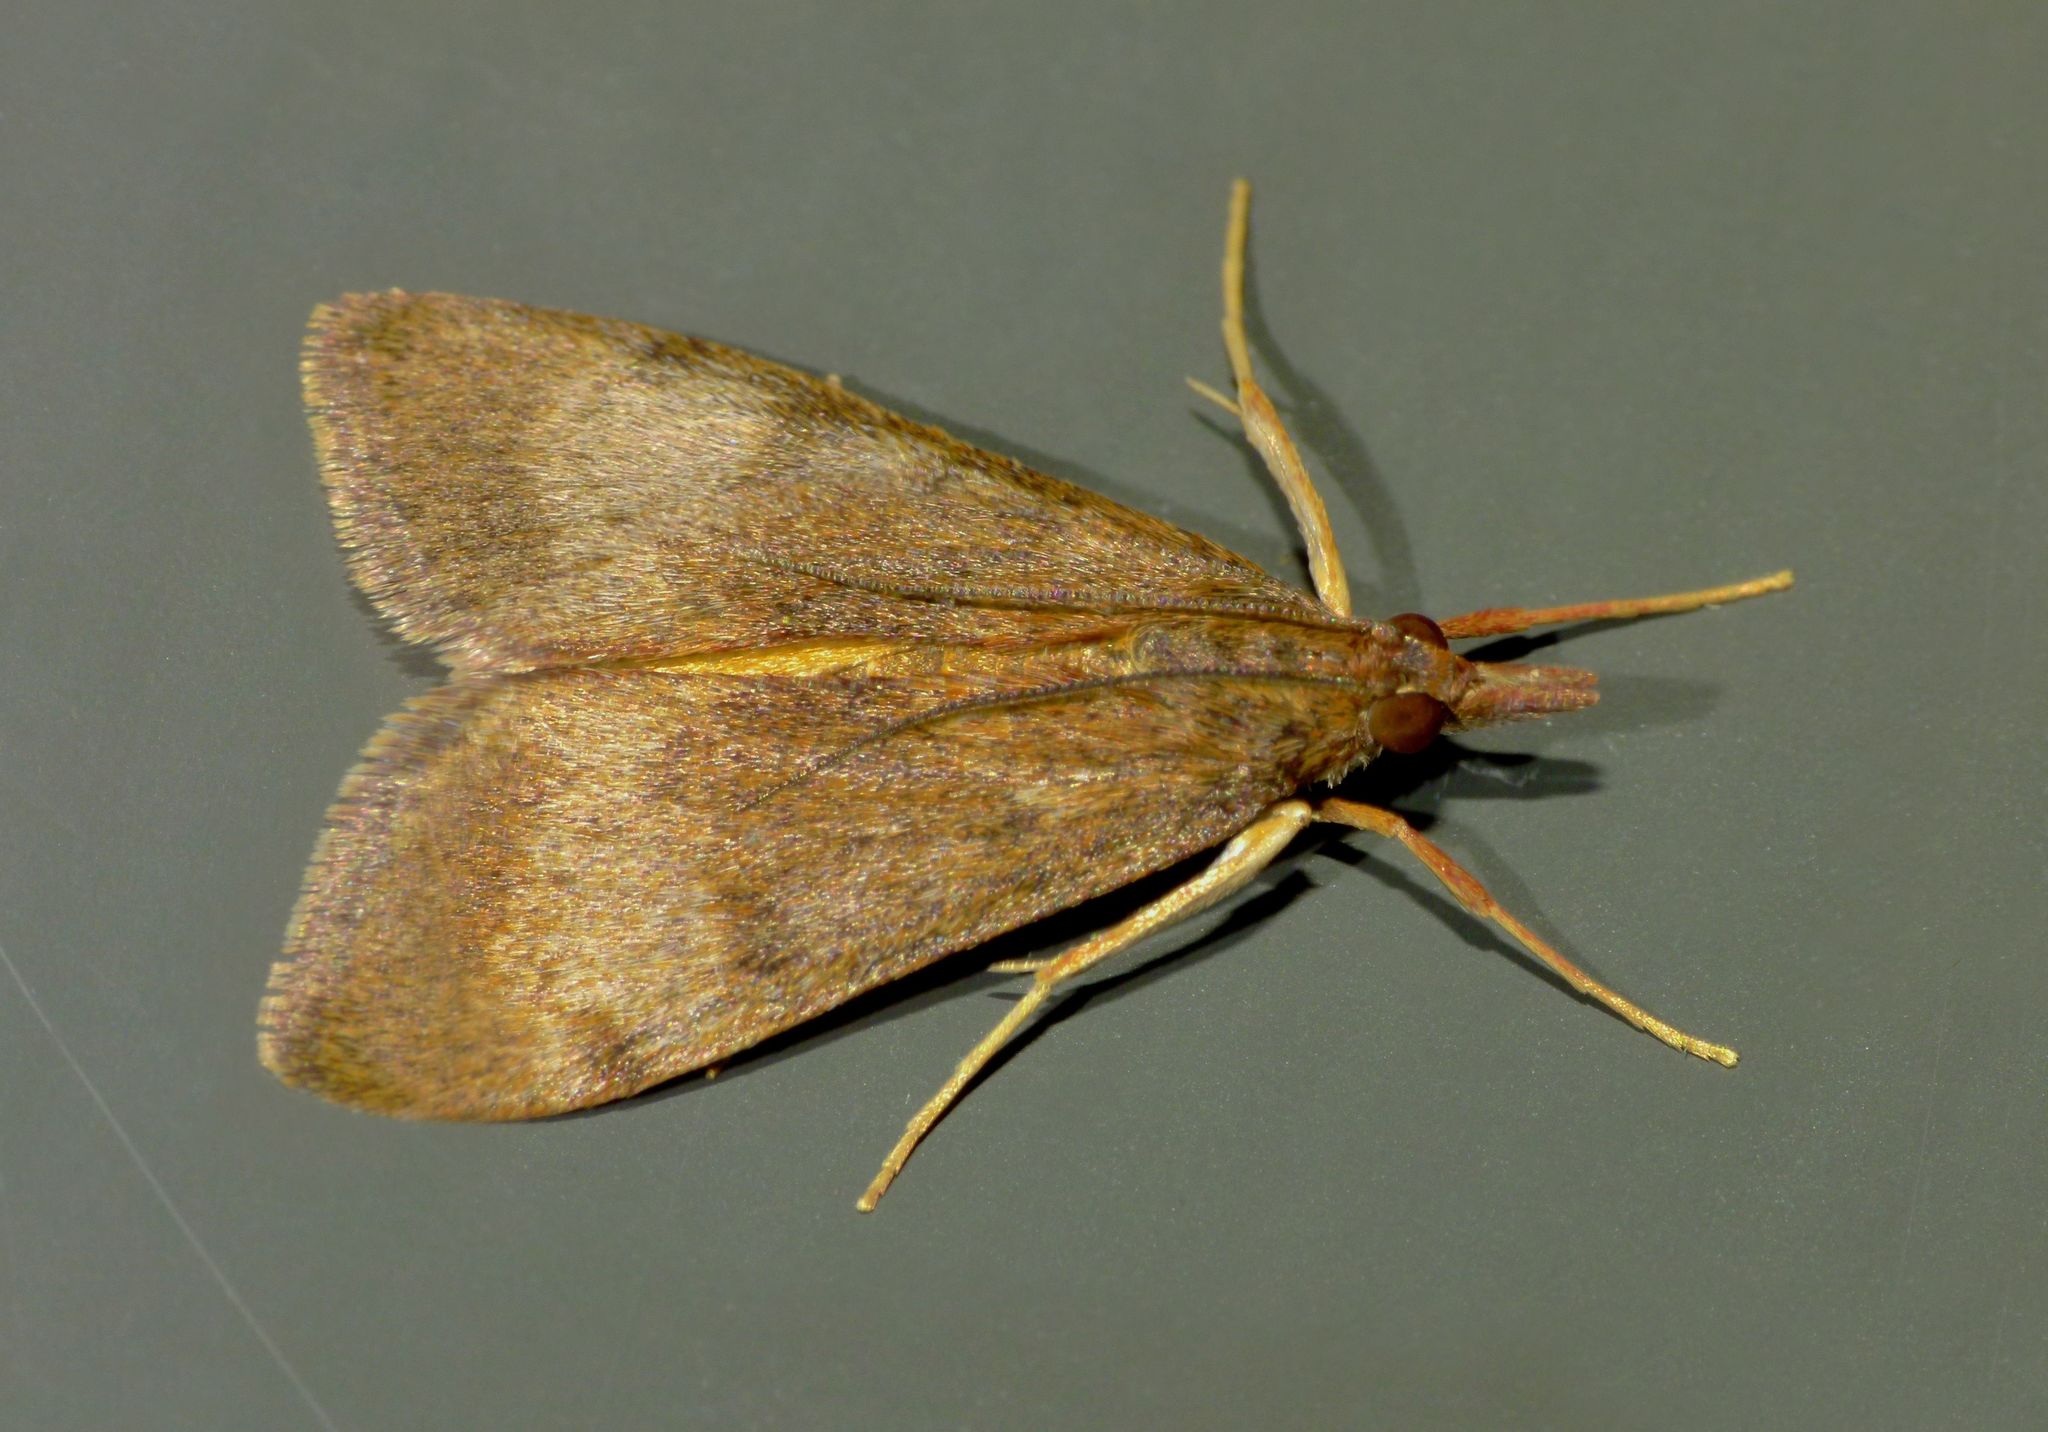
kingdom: Animalia
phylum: Arthropoda
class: Insecta
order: Lepidoptera
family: Crambidae
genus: Uresiphita
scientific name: Uresiphita
